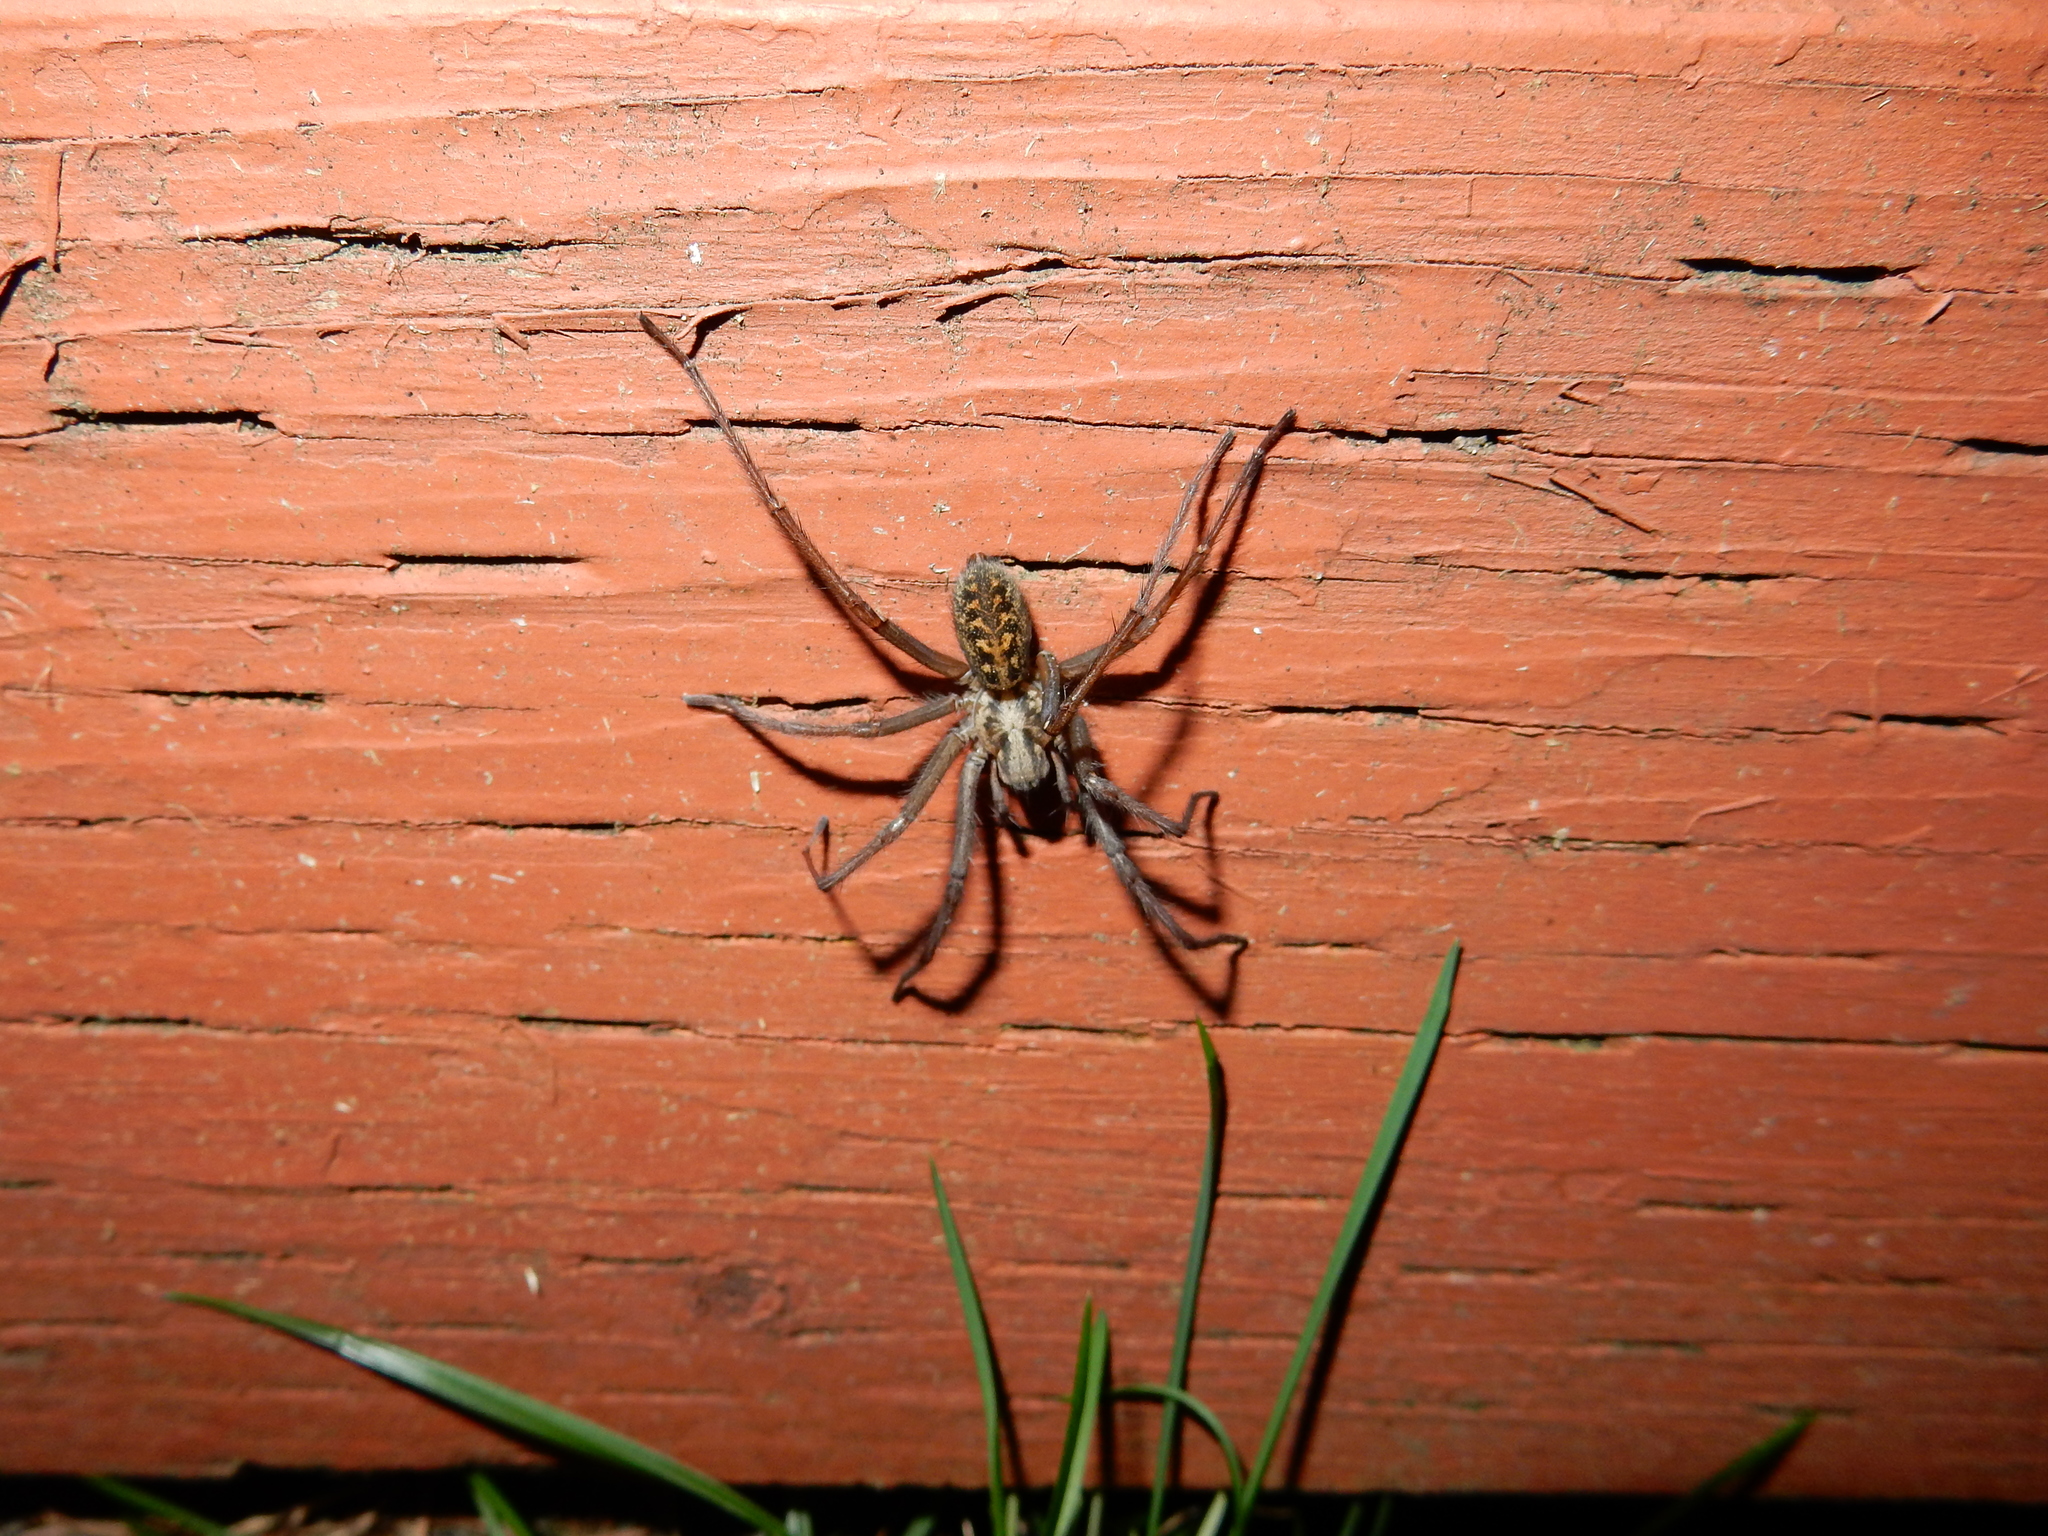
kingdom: Animalia
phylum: Arthropoda
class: Arachnida
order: Araneae
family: Agelenidae
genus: Eratigena
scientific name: Eratigena duellica
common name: Giant house spider
